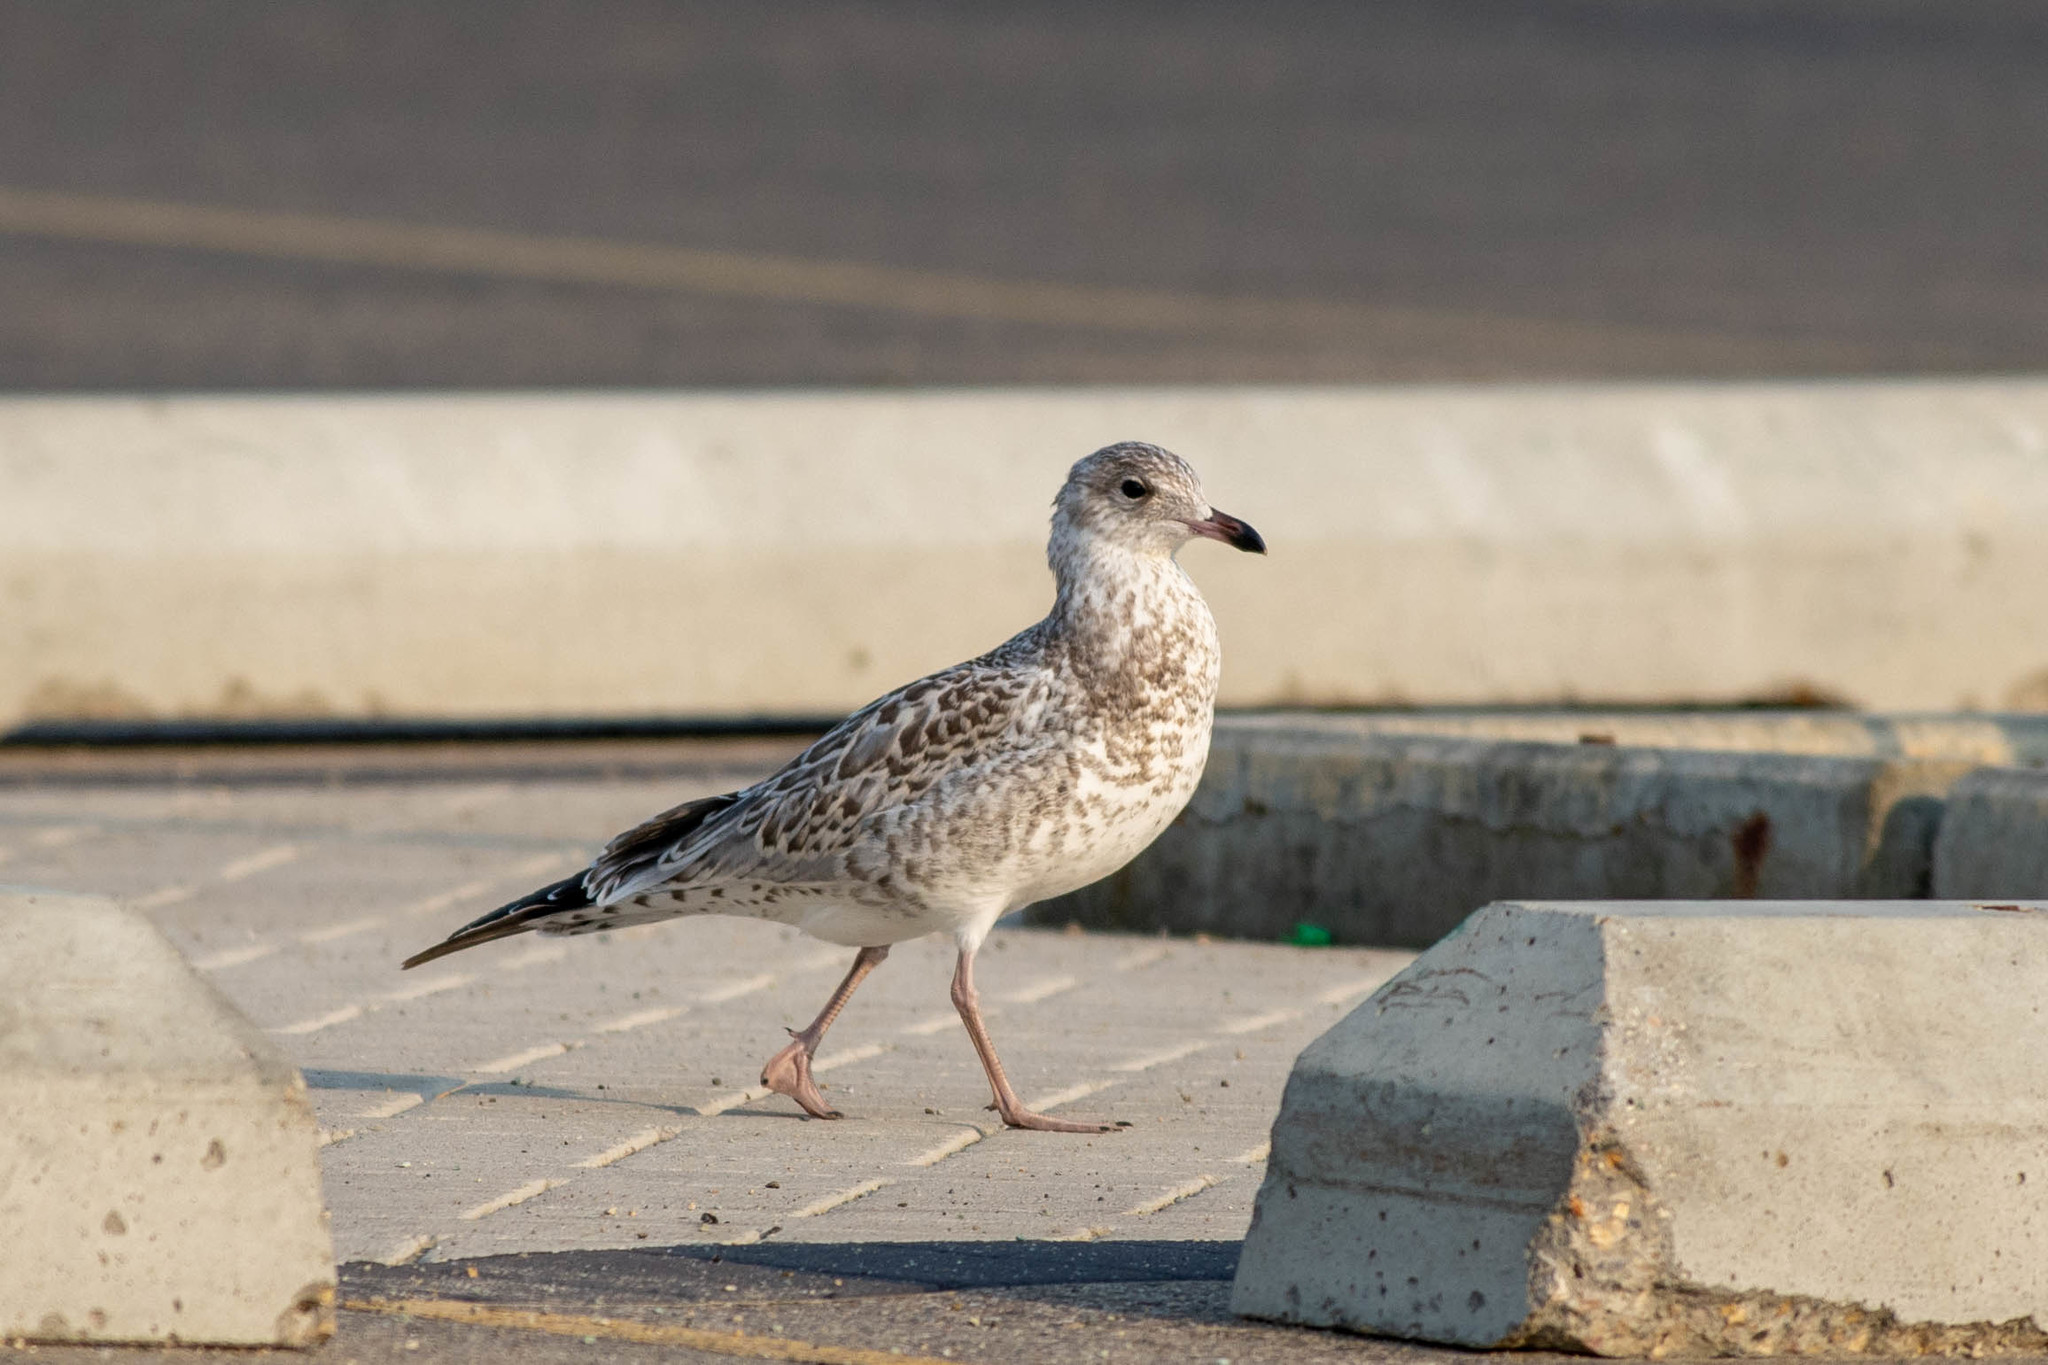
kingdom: Animalia
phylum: Chordata
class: Aves
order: Charadriiformes
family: Laridae
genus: Larus
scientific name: Larus delawarensis
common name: Ring-billed gull
